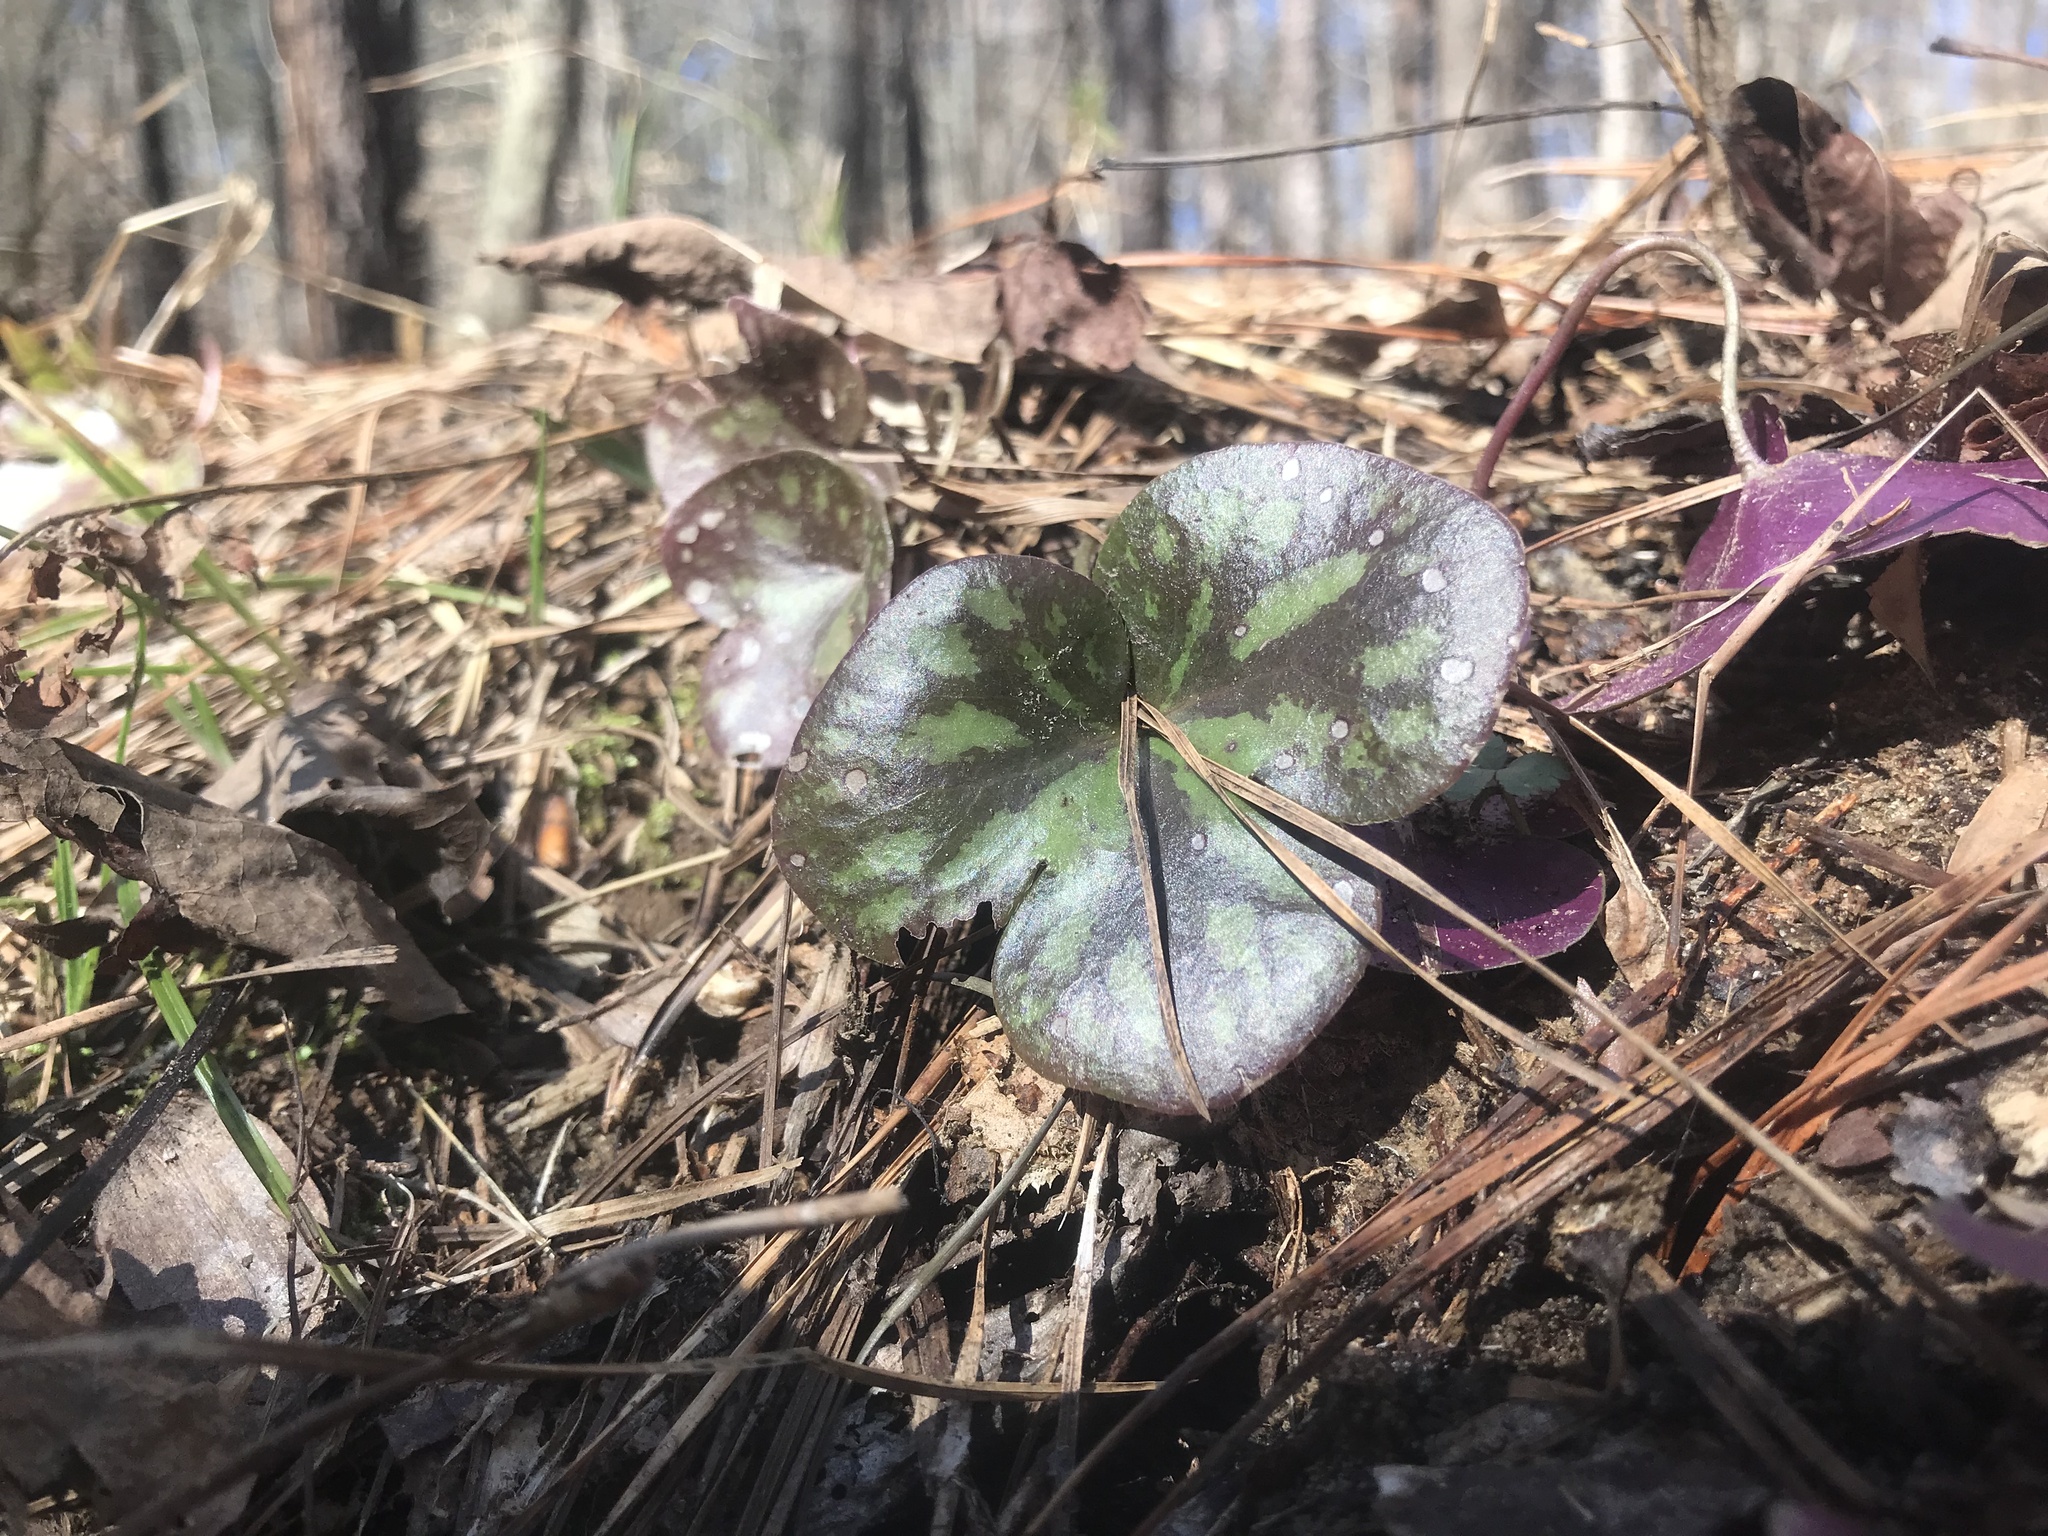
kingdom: Plantae
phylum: Tracheophyta
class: Magnoliopsida
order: Ranunculales
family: Ranunculaceae
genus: Hepatica
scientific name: Hepatica americana
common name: American hepatica
